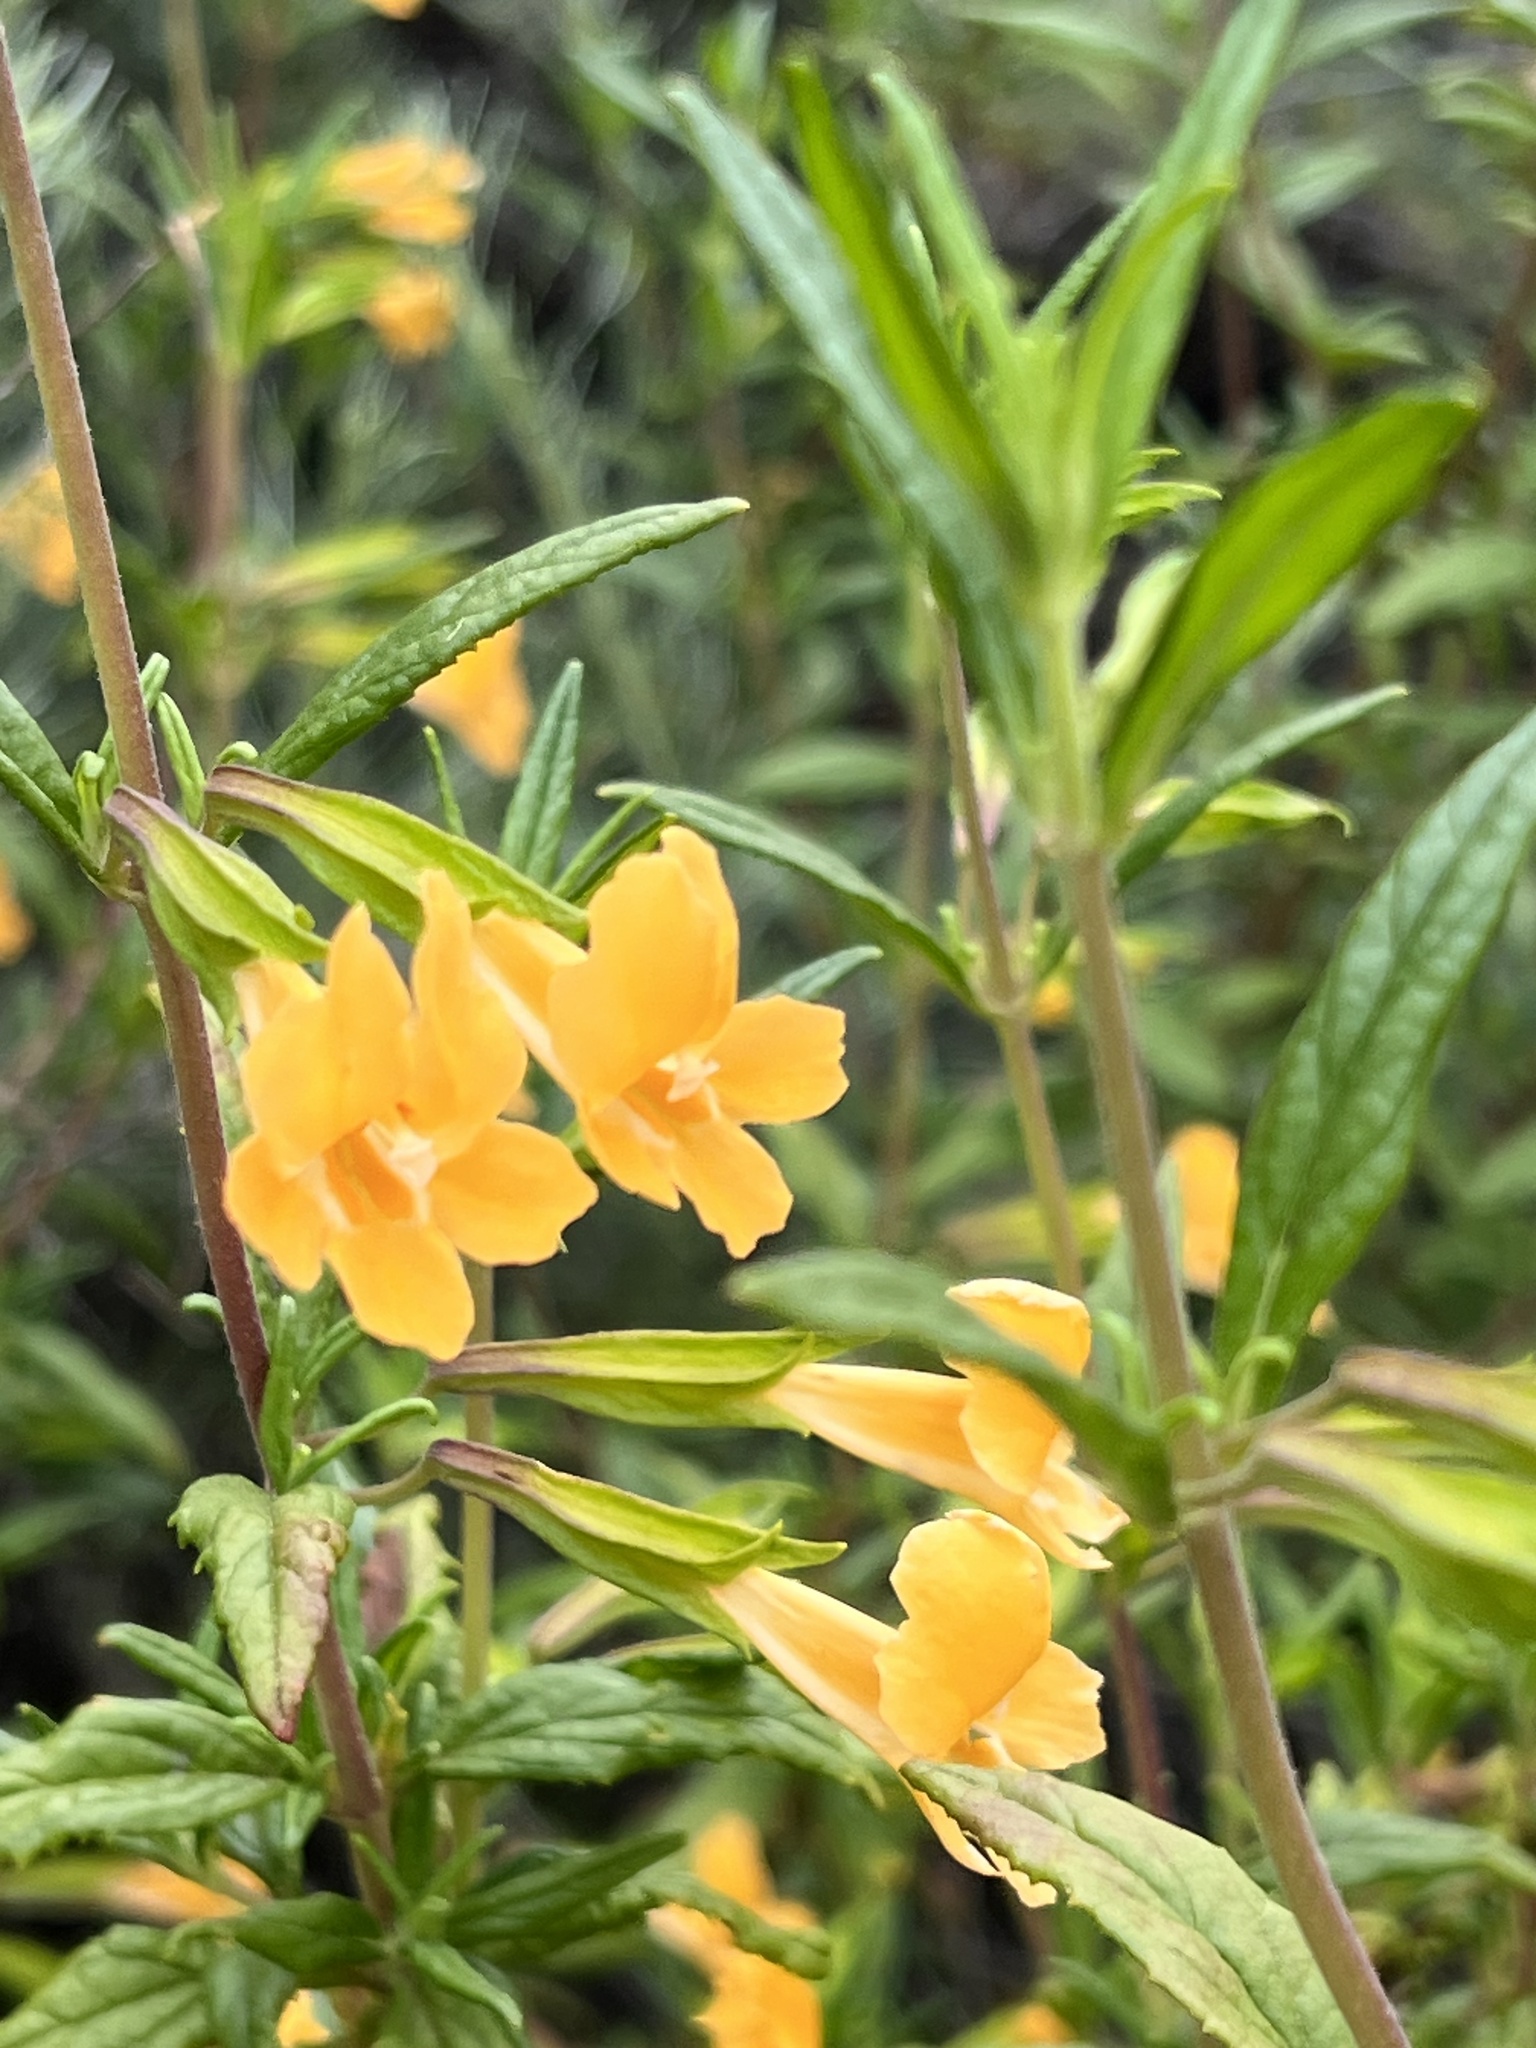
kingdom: Plantae
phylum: Tracheophyta
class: Magnoliopsida
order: Lamiales
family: Phrymaceae
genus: Diplacus
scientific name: Diplacus aurantiacus
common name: Bush monkey-flower
